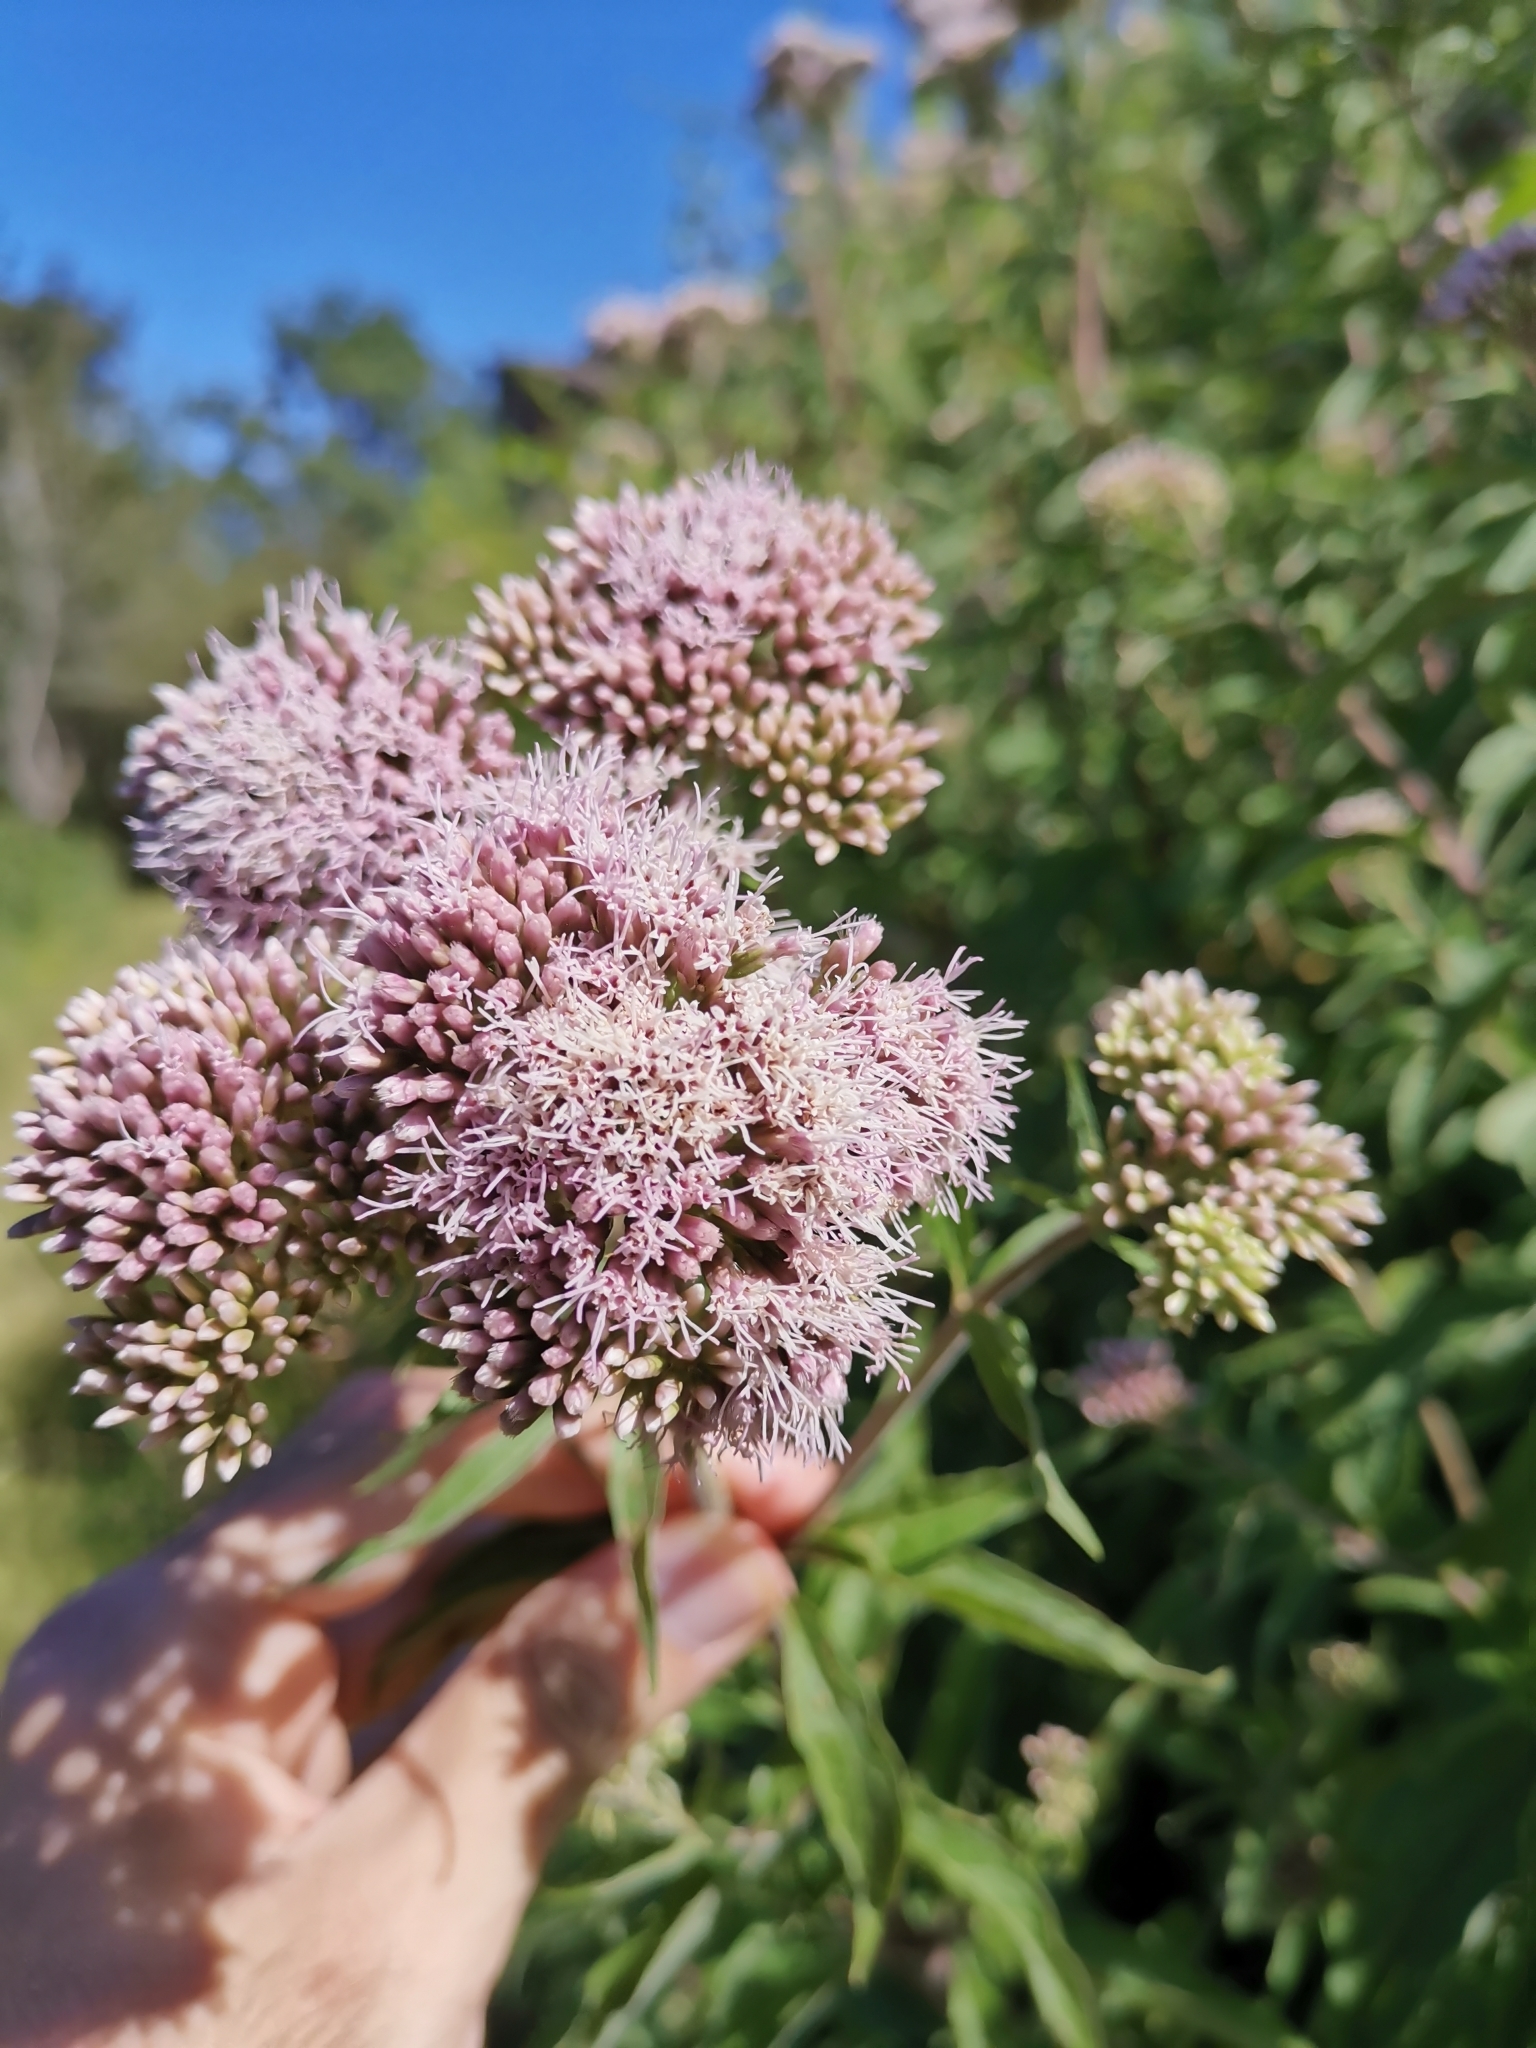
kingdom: Plantae
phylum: Tracheophyta
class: Magnoliopsida
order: Asterales
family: Asteraceae
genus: Eupatorium
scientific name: Eupatorium cannabinum
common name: Hemp-agrimony
